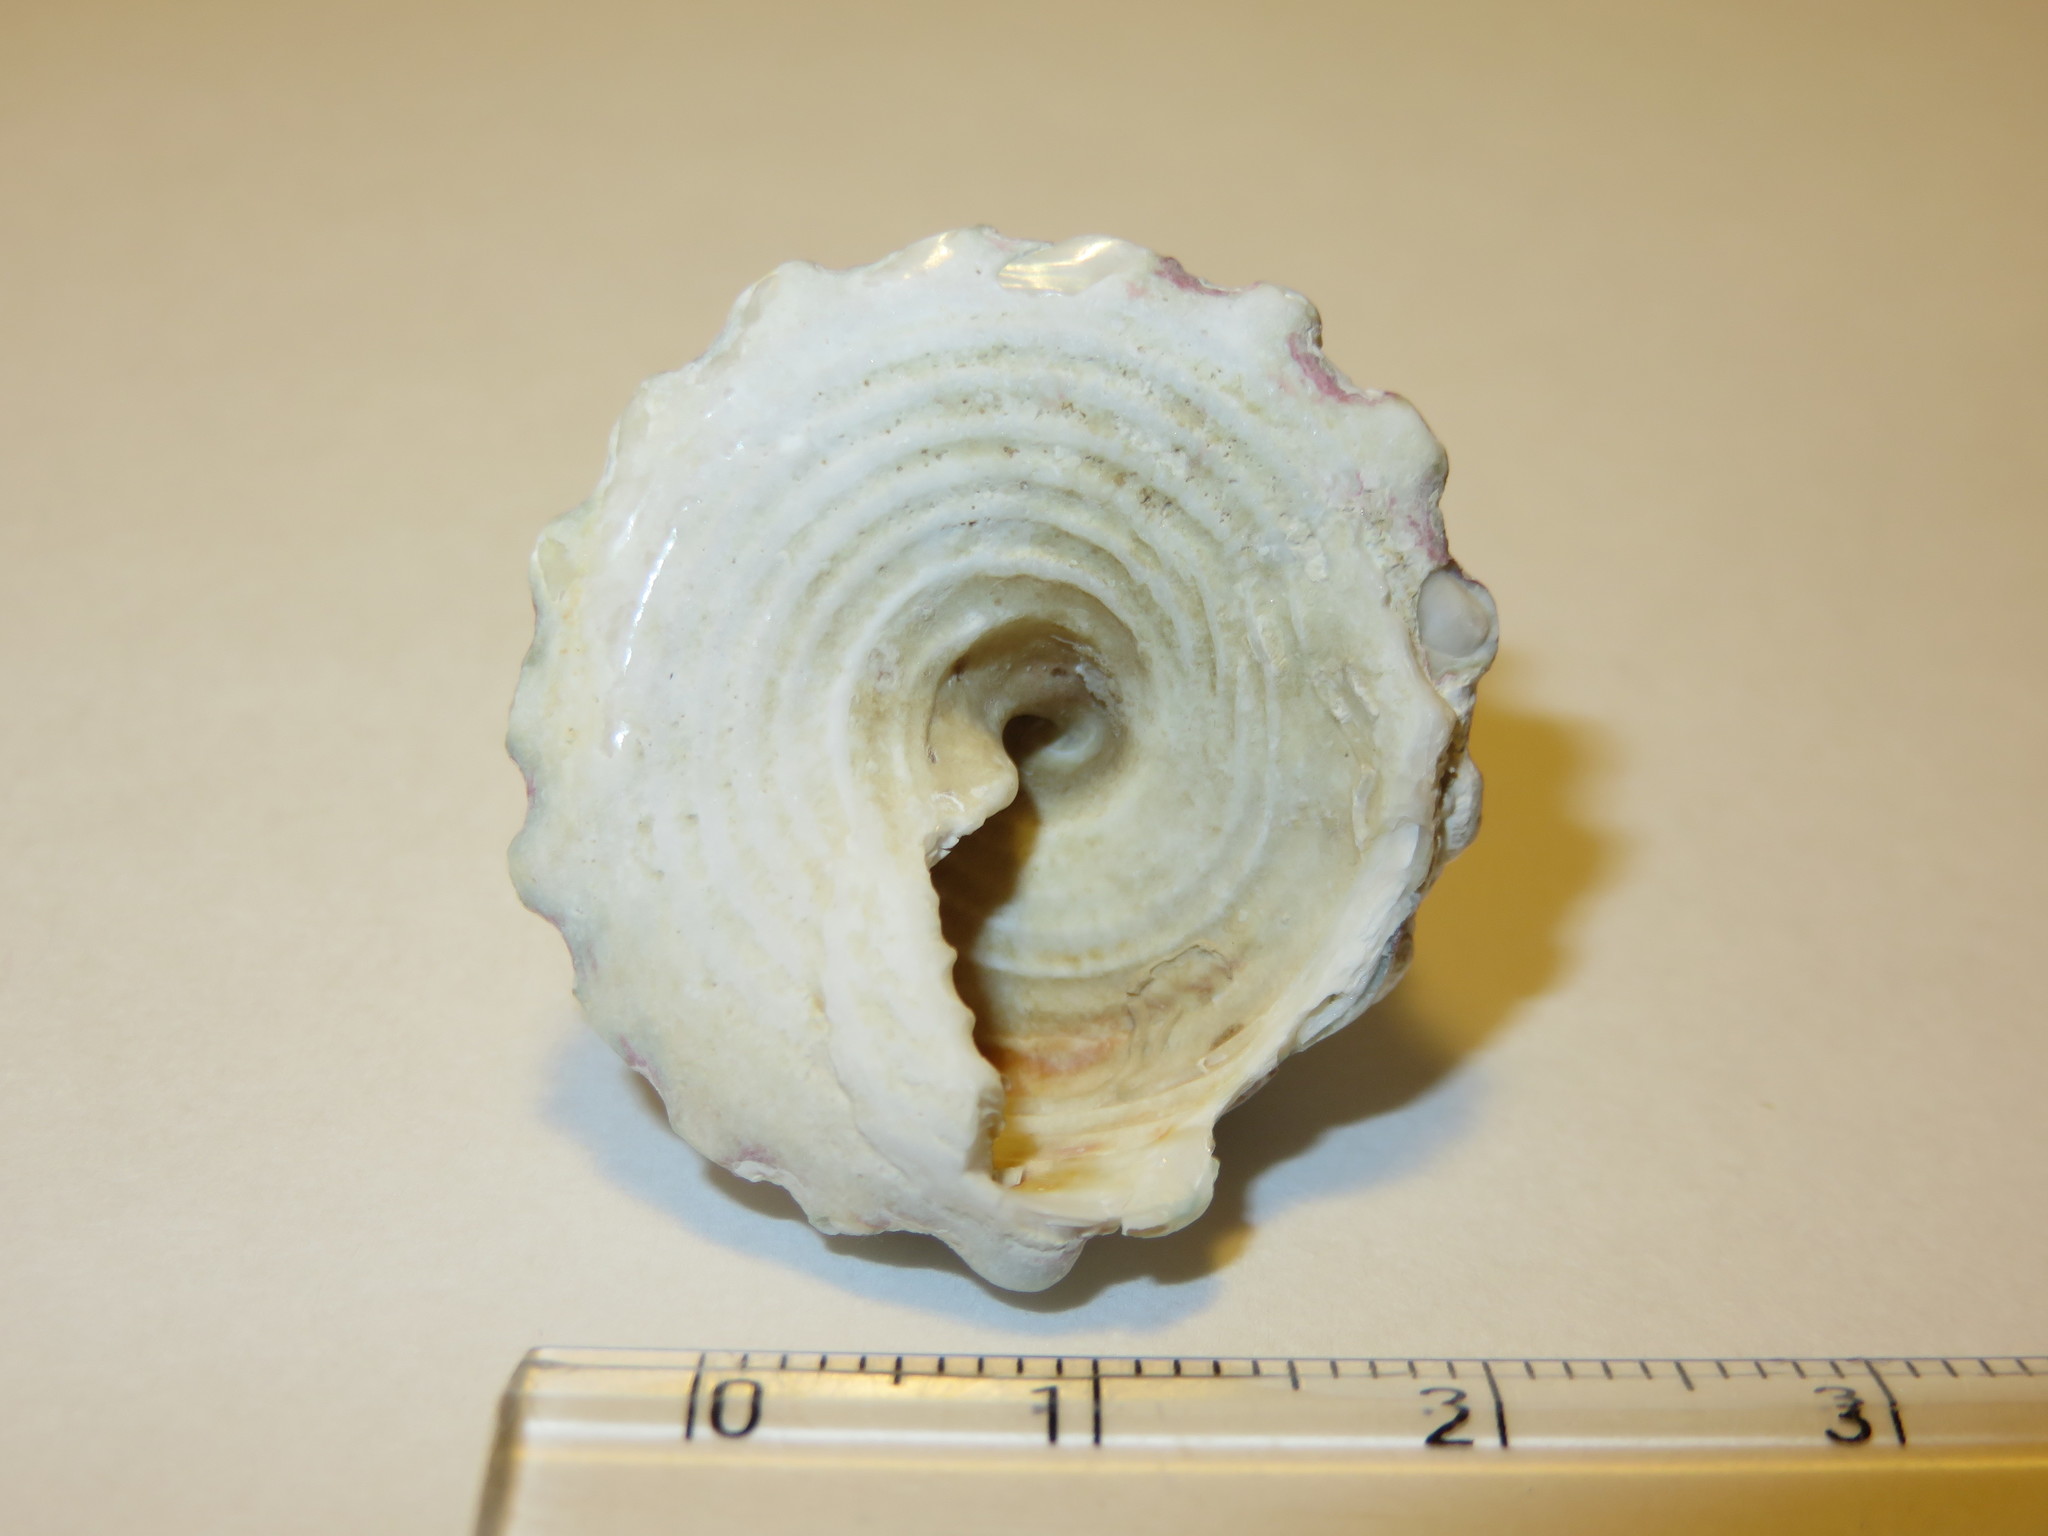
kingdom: Animalia
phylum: Mollusca
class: Gastropoda
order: Trochida
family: Trochidae
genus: Trochus
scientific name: Trochus rota
